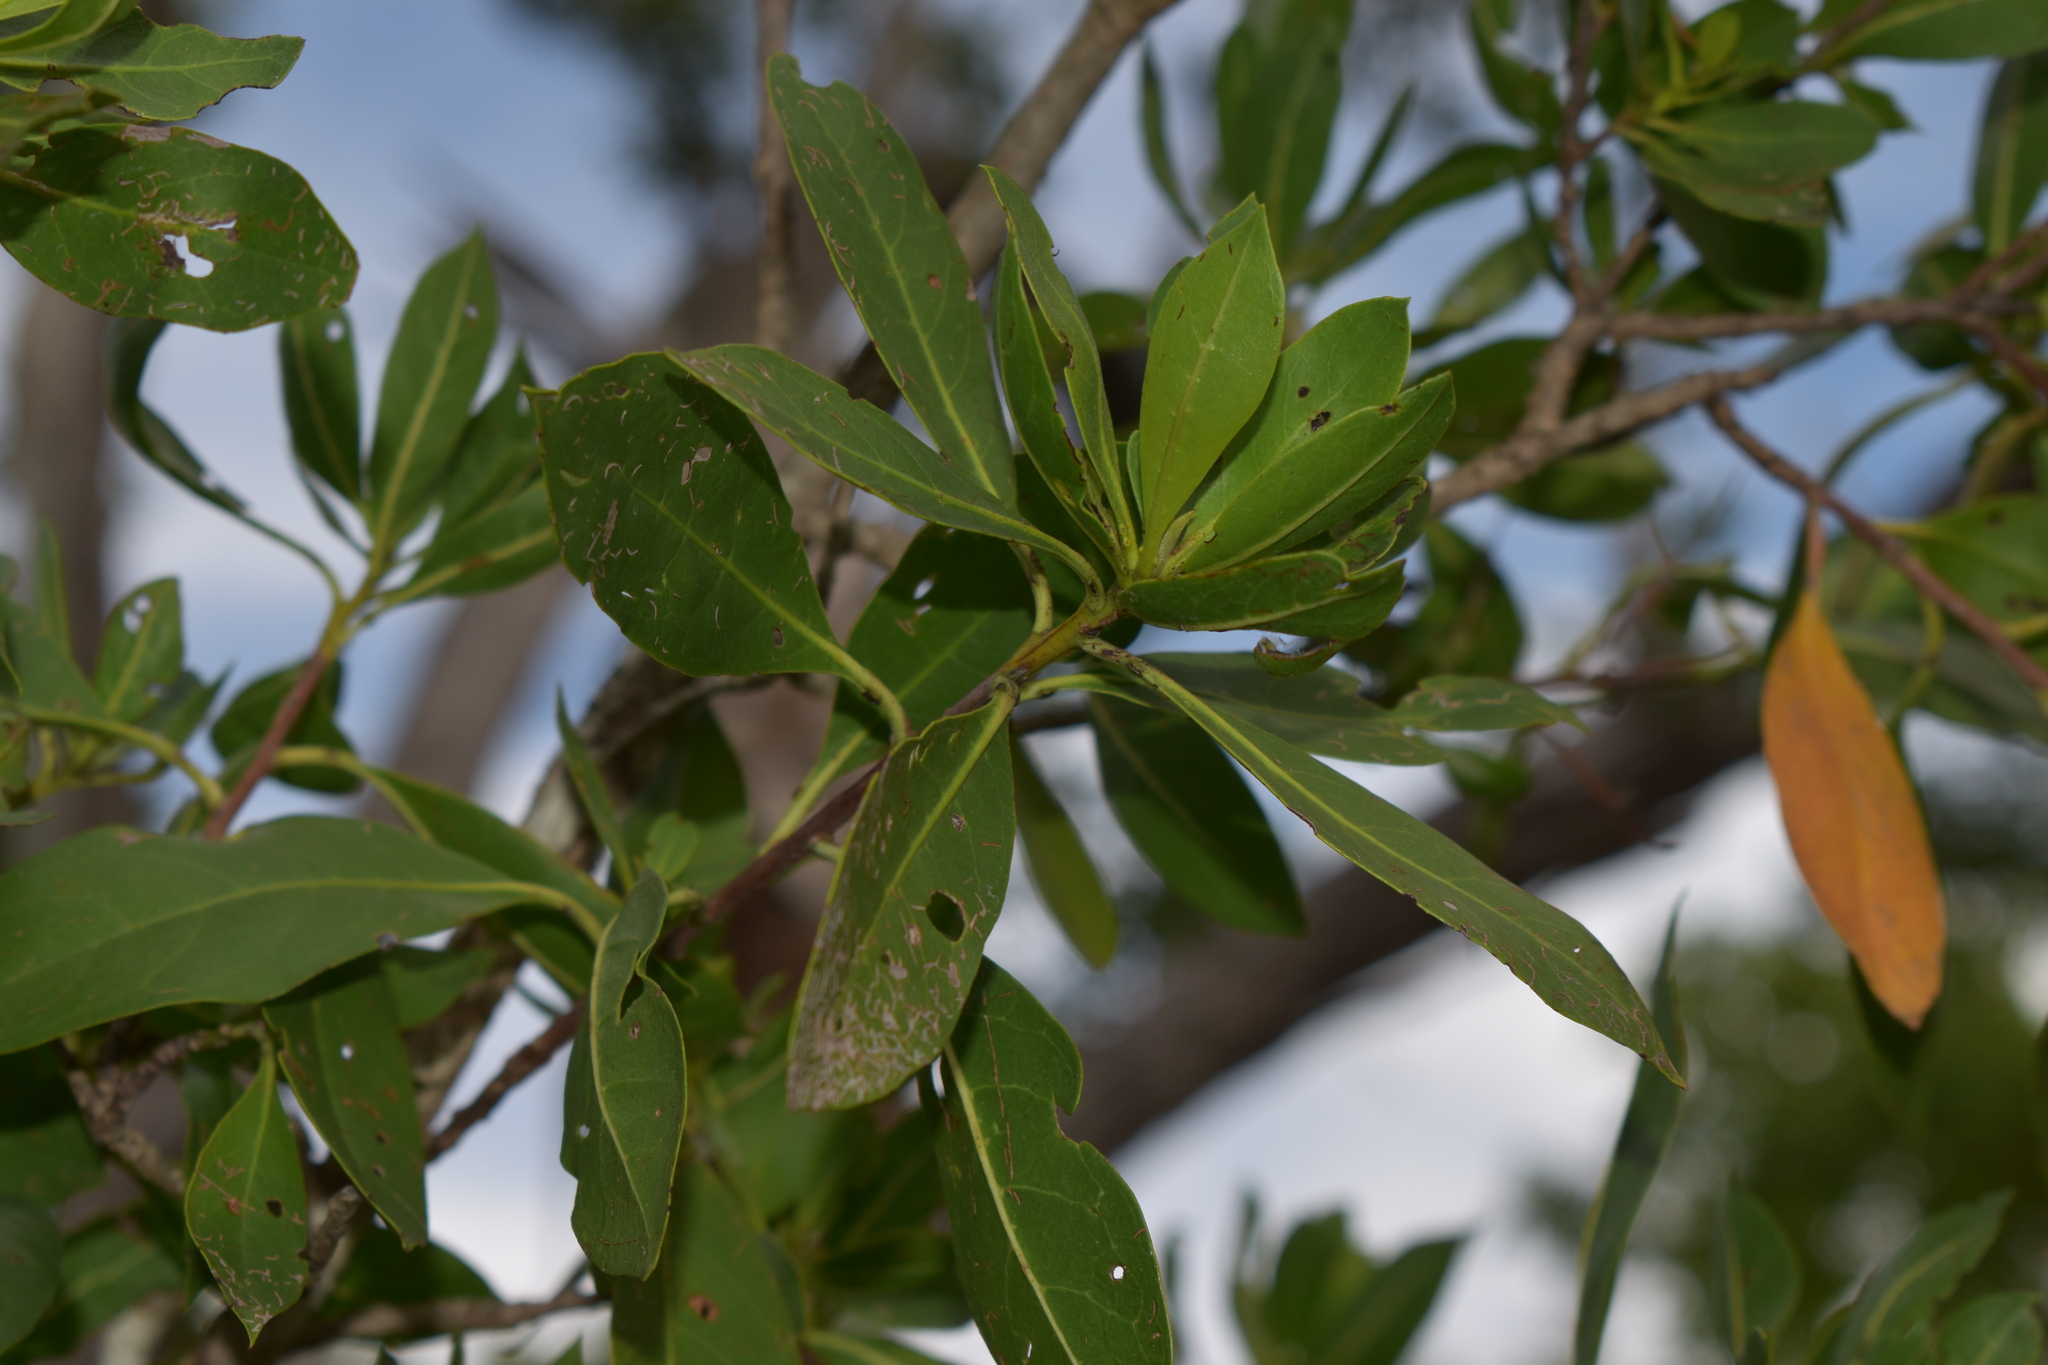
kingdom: Plantae
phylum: Tracheophyta
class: Magnoliopsida
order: Malpighiales
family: Rhizophoraceae
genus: Rhizophora
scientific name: Rhizophora mangle
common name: Red mangrove
